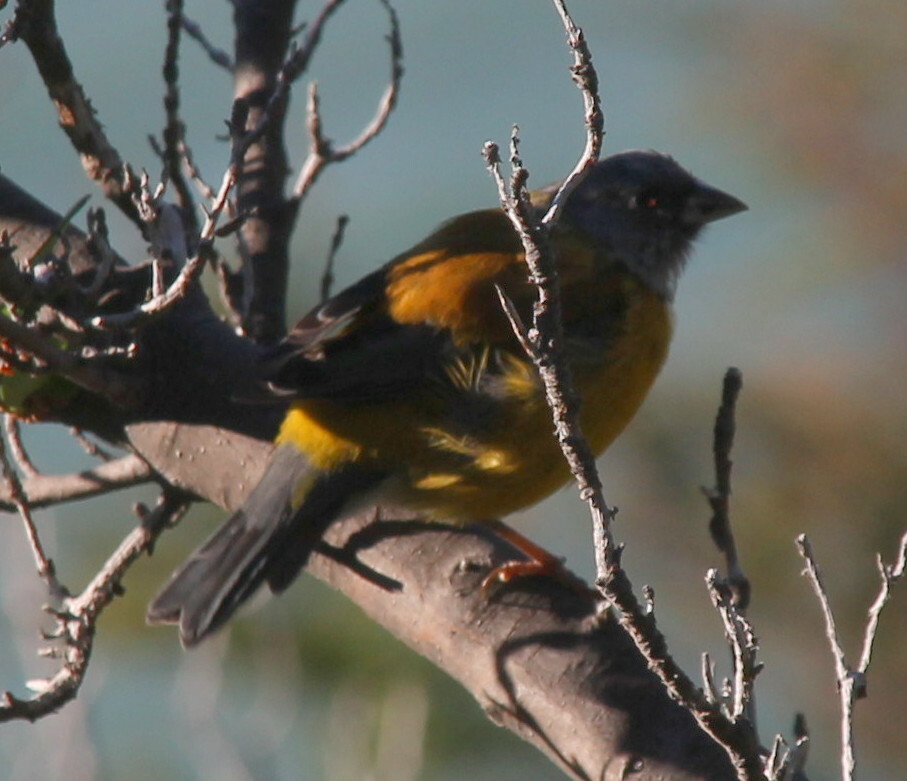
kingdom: Animalia
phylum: Chordata
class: Aves
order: Passeriformes
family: Thraupidae
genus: Phrygilus
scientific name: Phrygilus patagonicus
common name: Patagonian sierra finch
